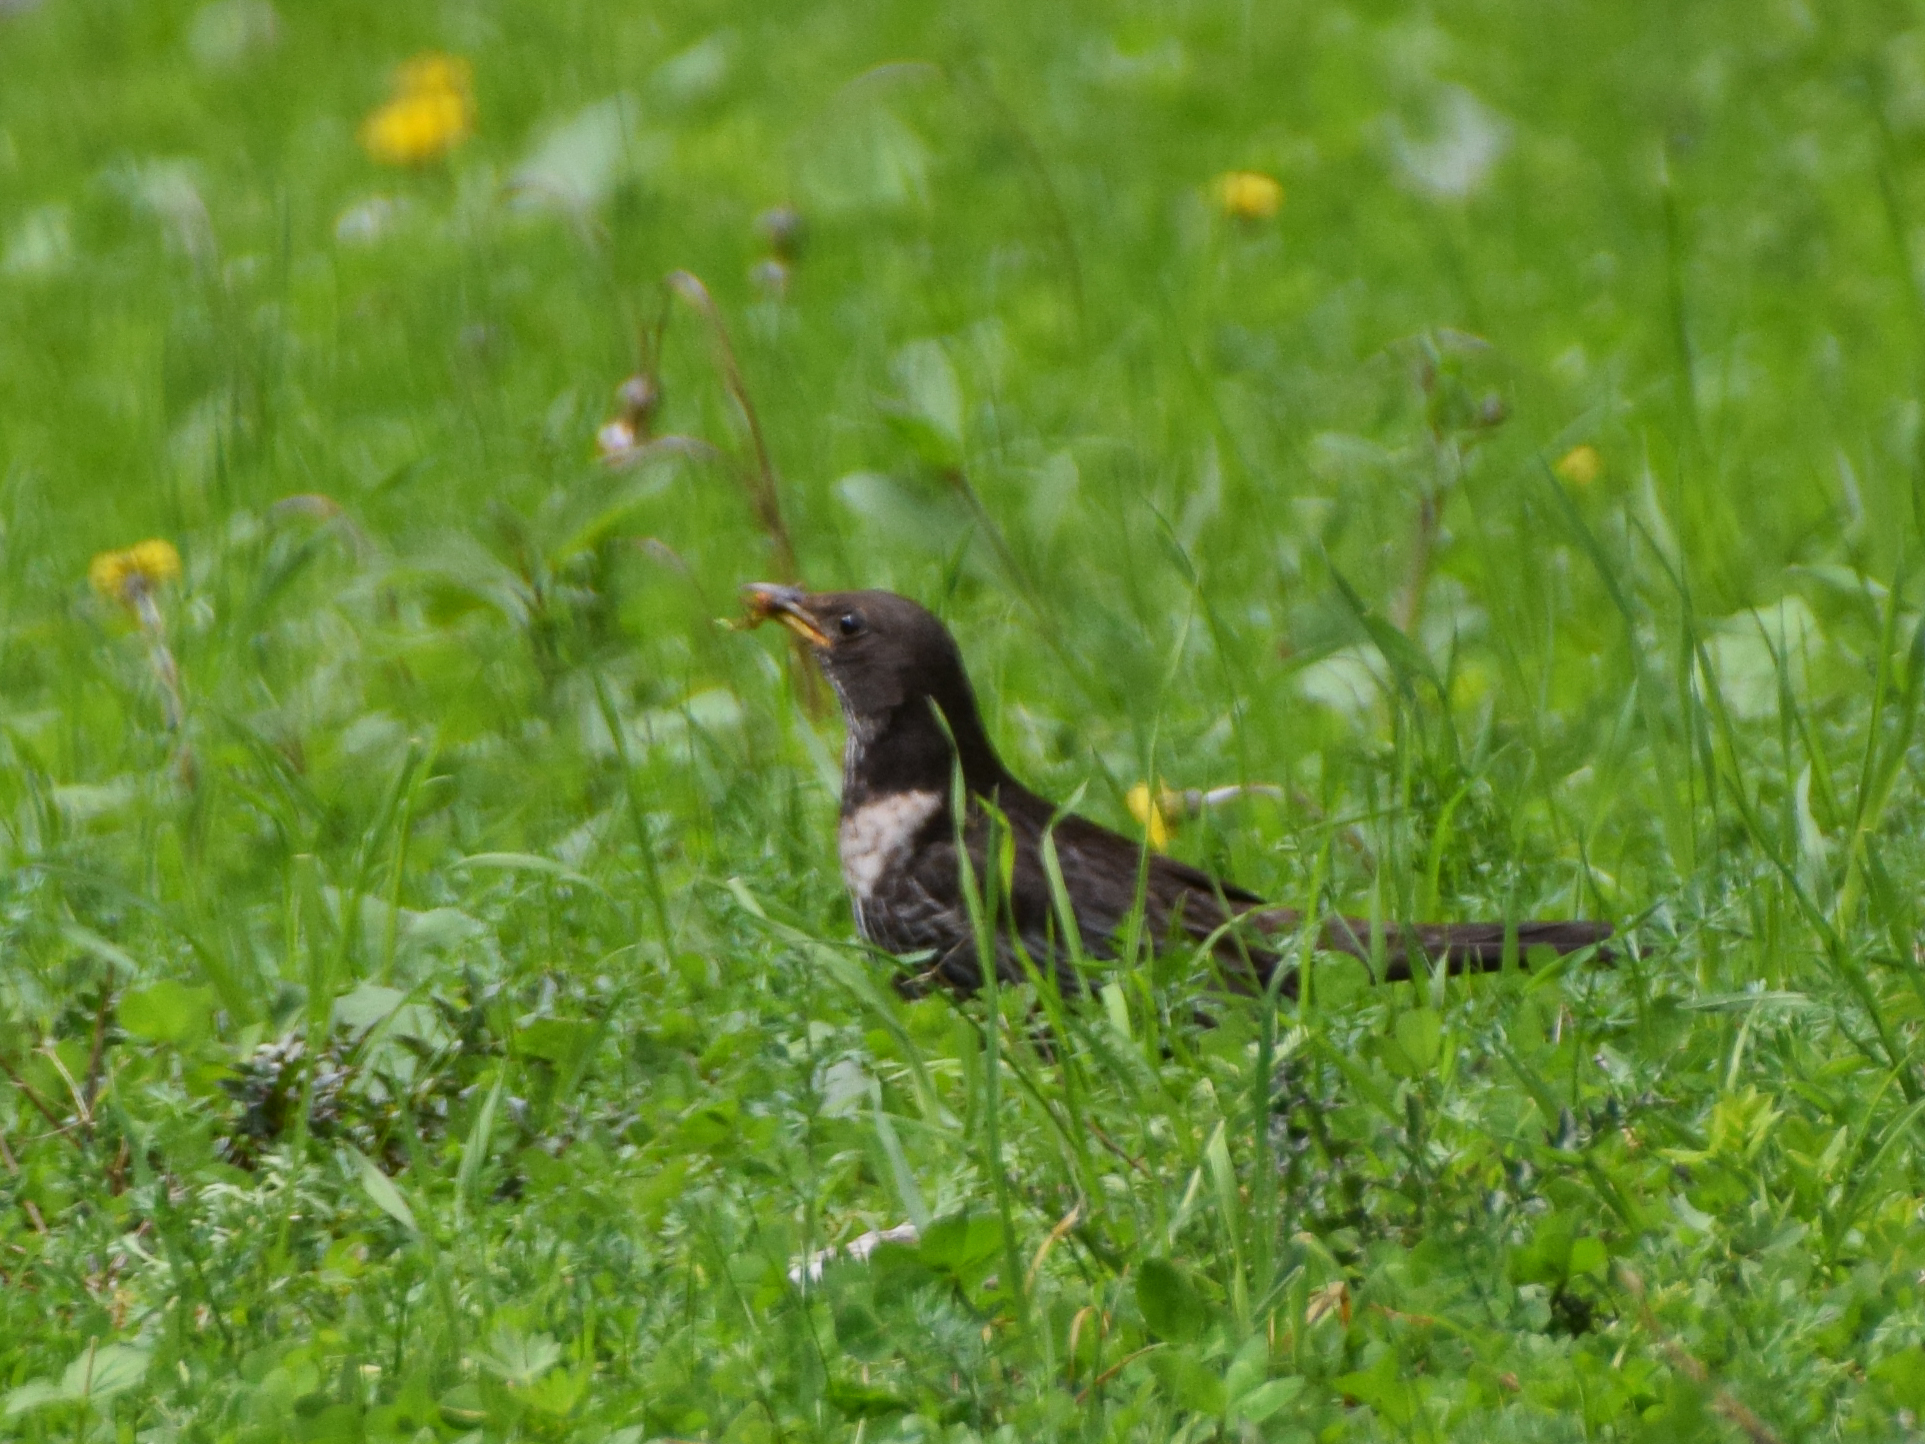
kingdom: Animalia
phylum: Chordata
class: Aves
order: Passeriformes
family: Turdidae
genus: Turdus
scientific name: Turdus torquatus
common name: Ring ouzel
